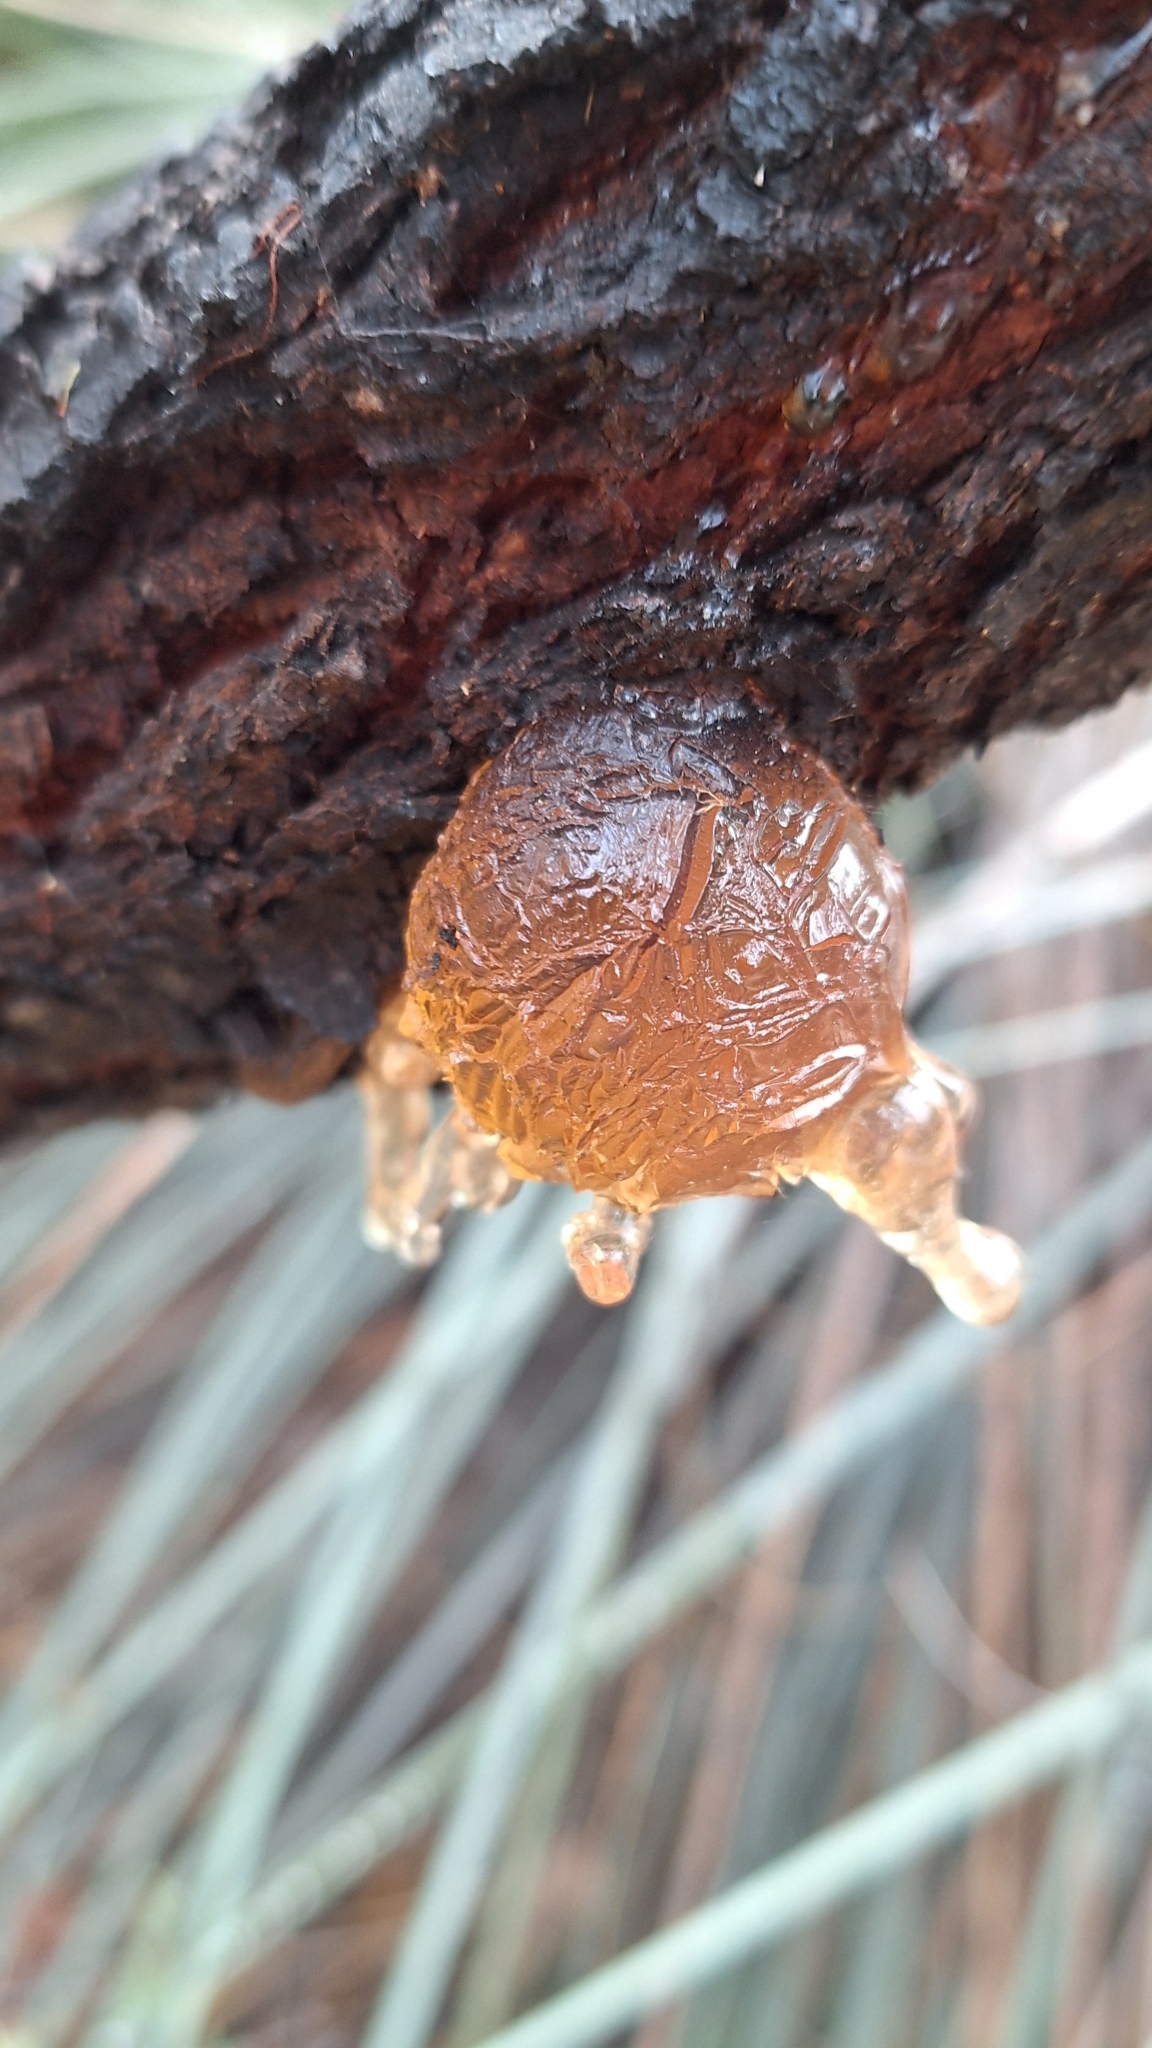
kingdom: Plantae
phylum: Tracheophyta
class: Magnoliopsida
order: Fabales
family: Fabaceae
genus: Acacia
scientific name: Acacia pycnantha
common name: Golden wattle
